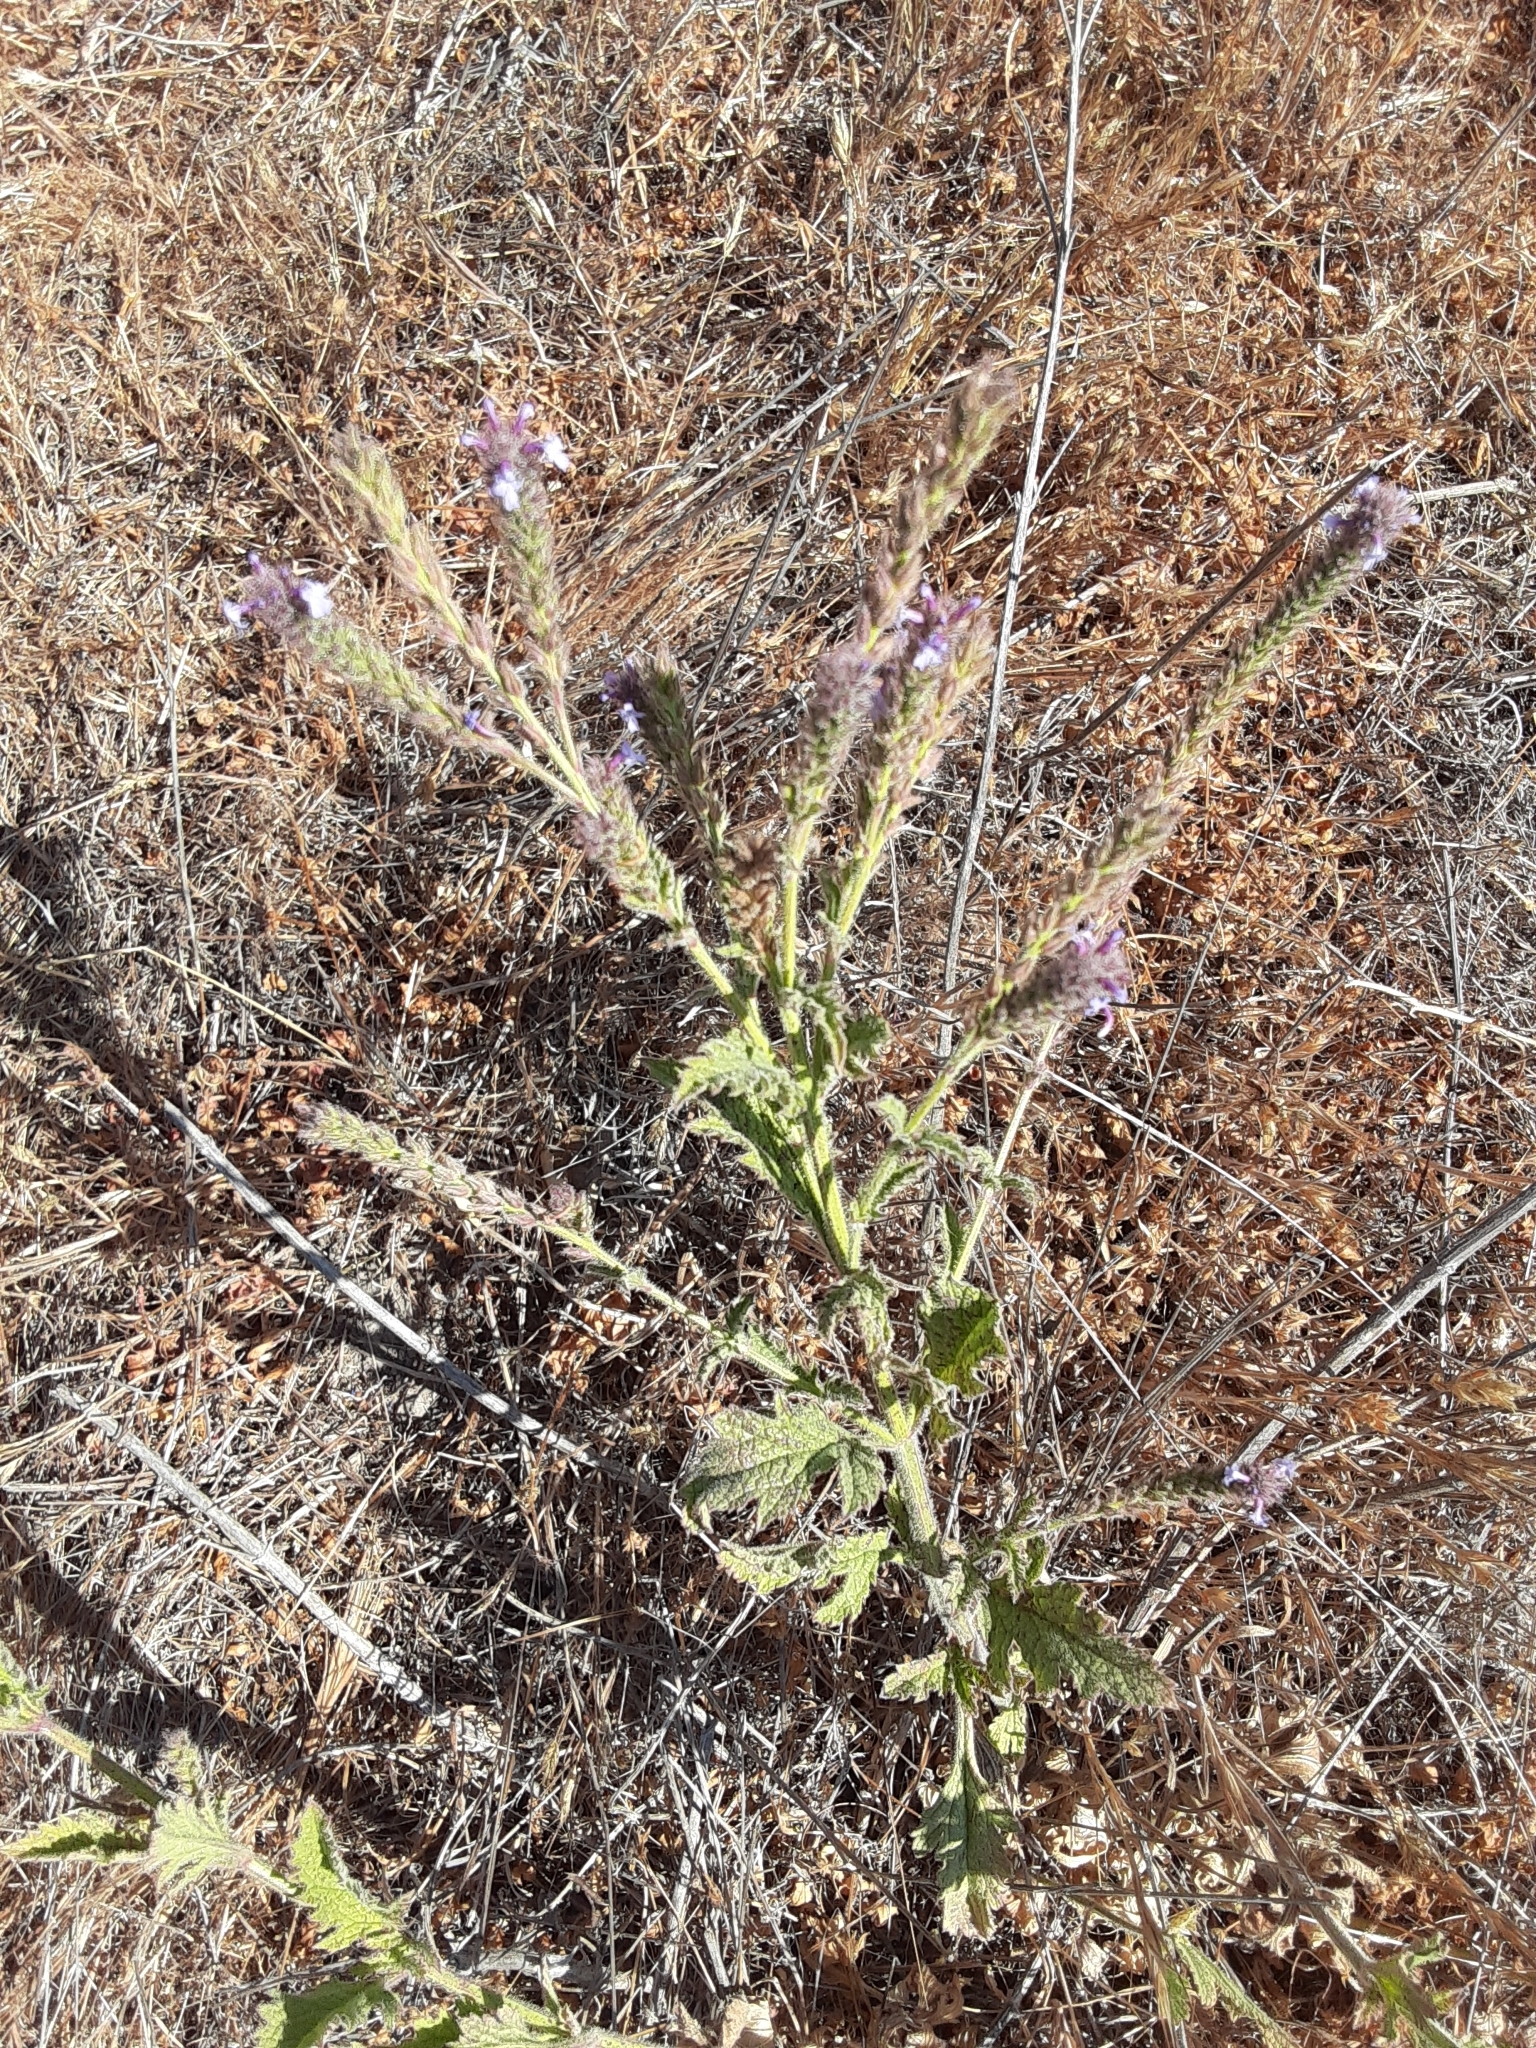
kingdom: Plantae
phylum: Tracheophyta
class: Magnoliopsida
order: Lamiales
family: Verbenaceae
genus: Verbena
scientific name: Verbena lasiostachys
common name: Vervain
